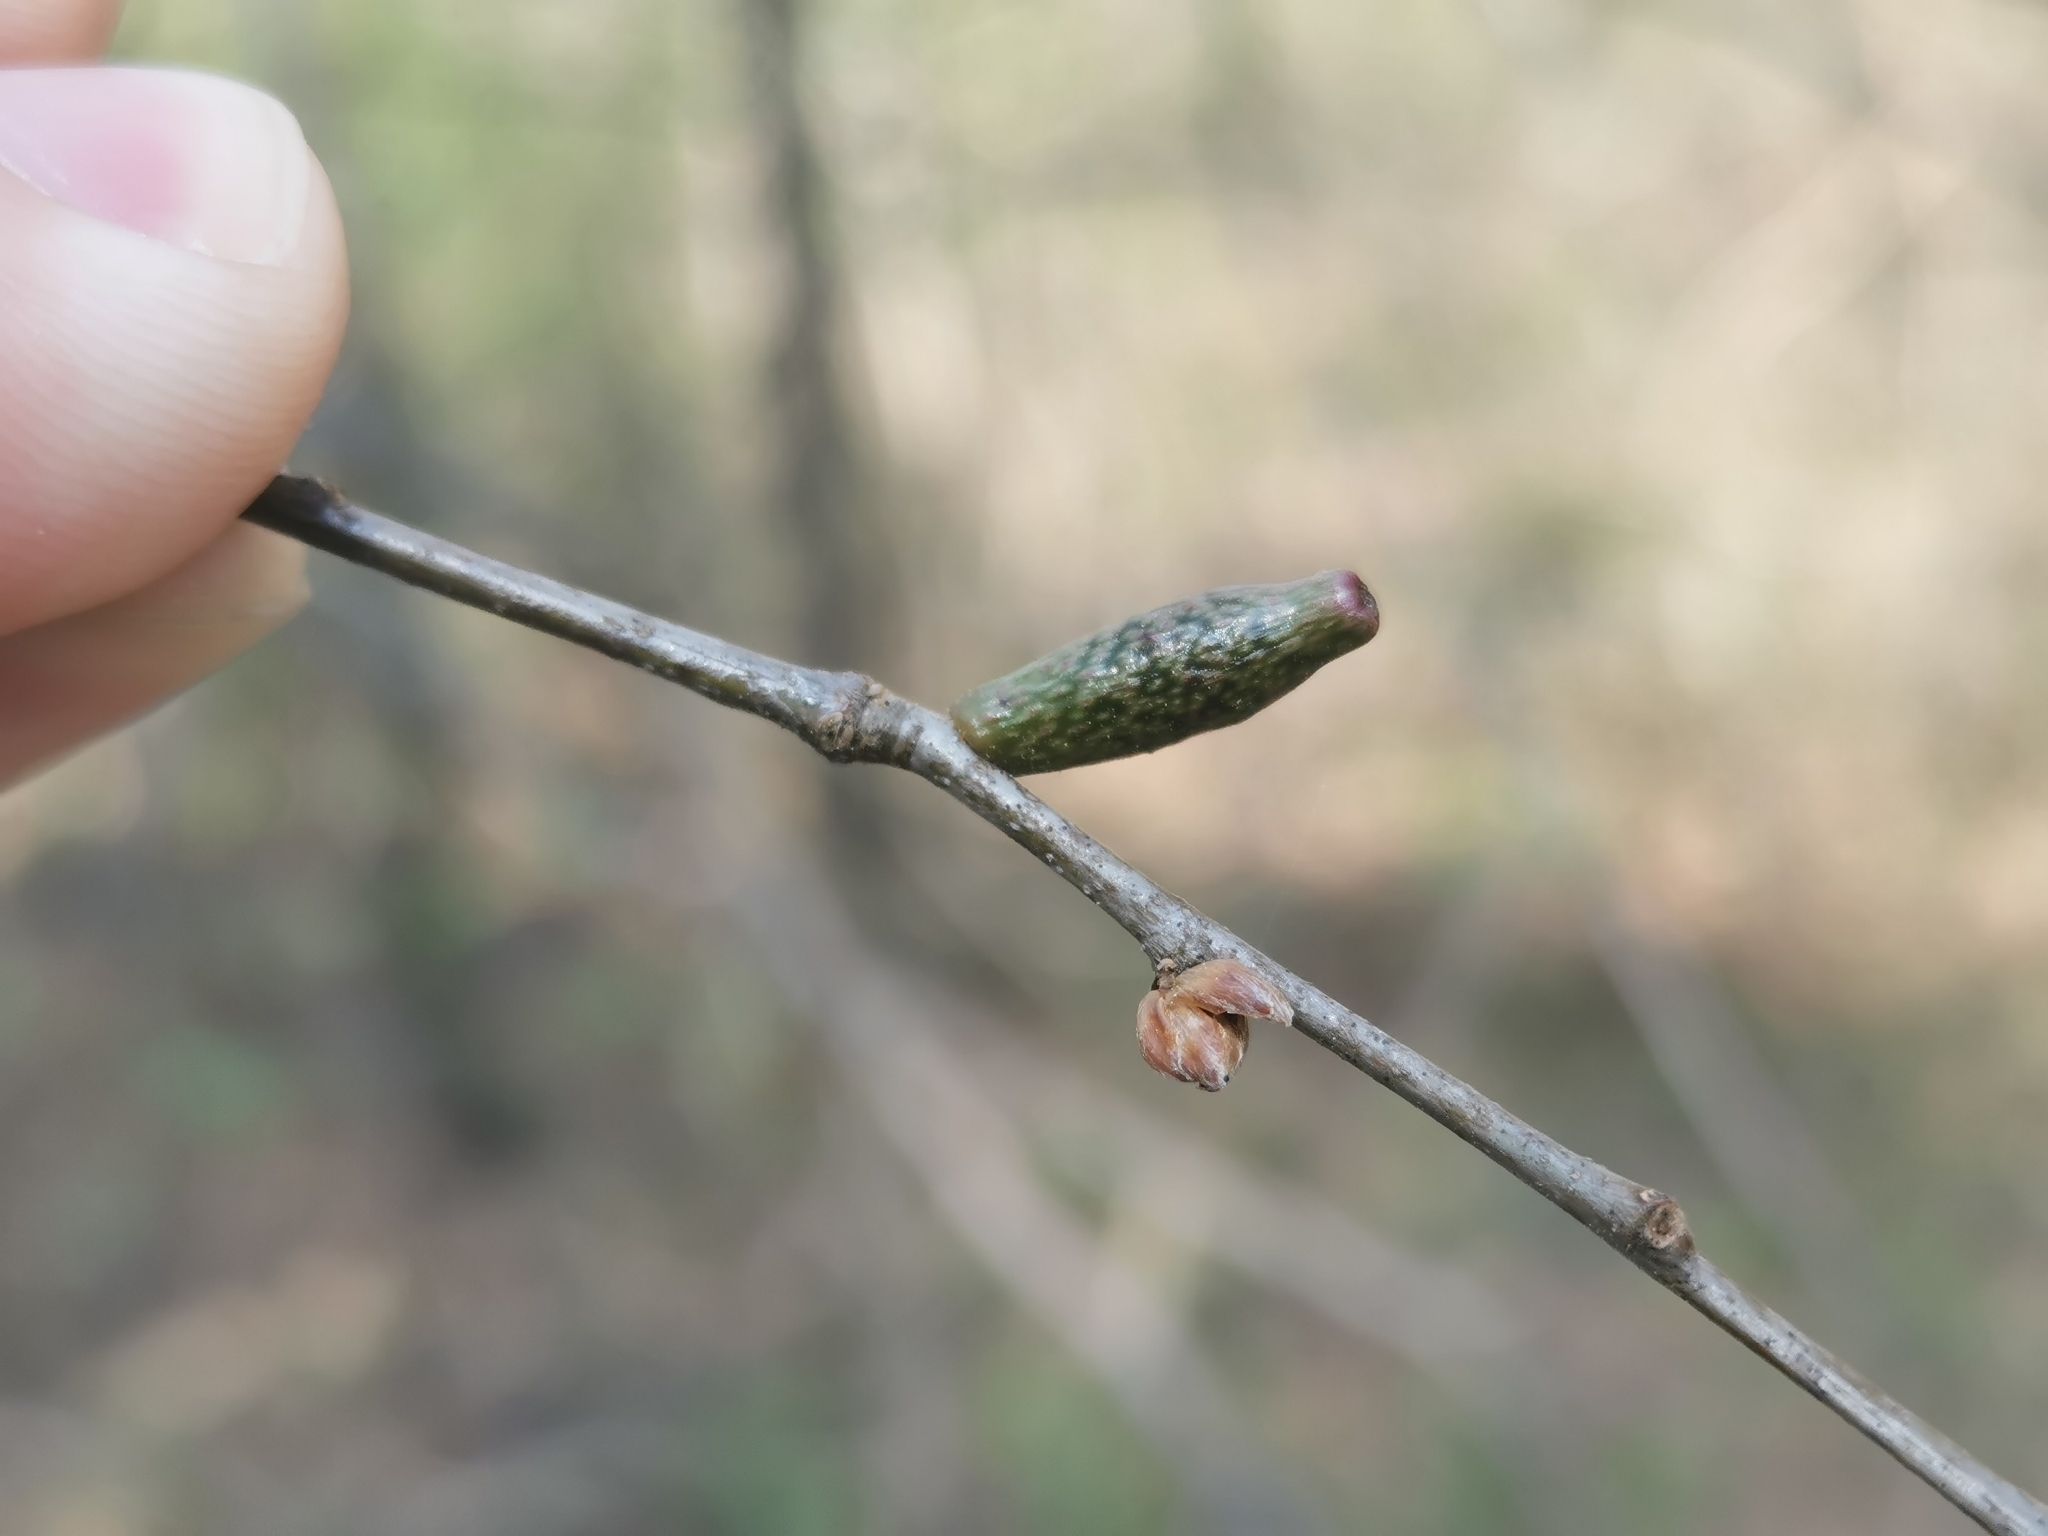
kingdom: Animalia
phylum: Arthropoda
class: Insecta
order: Hymenoptera
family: Cynipidae
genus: Amphibolips
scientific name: Amphibolips
